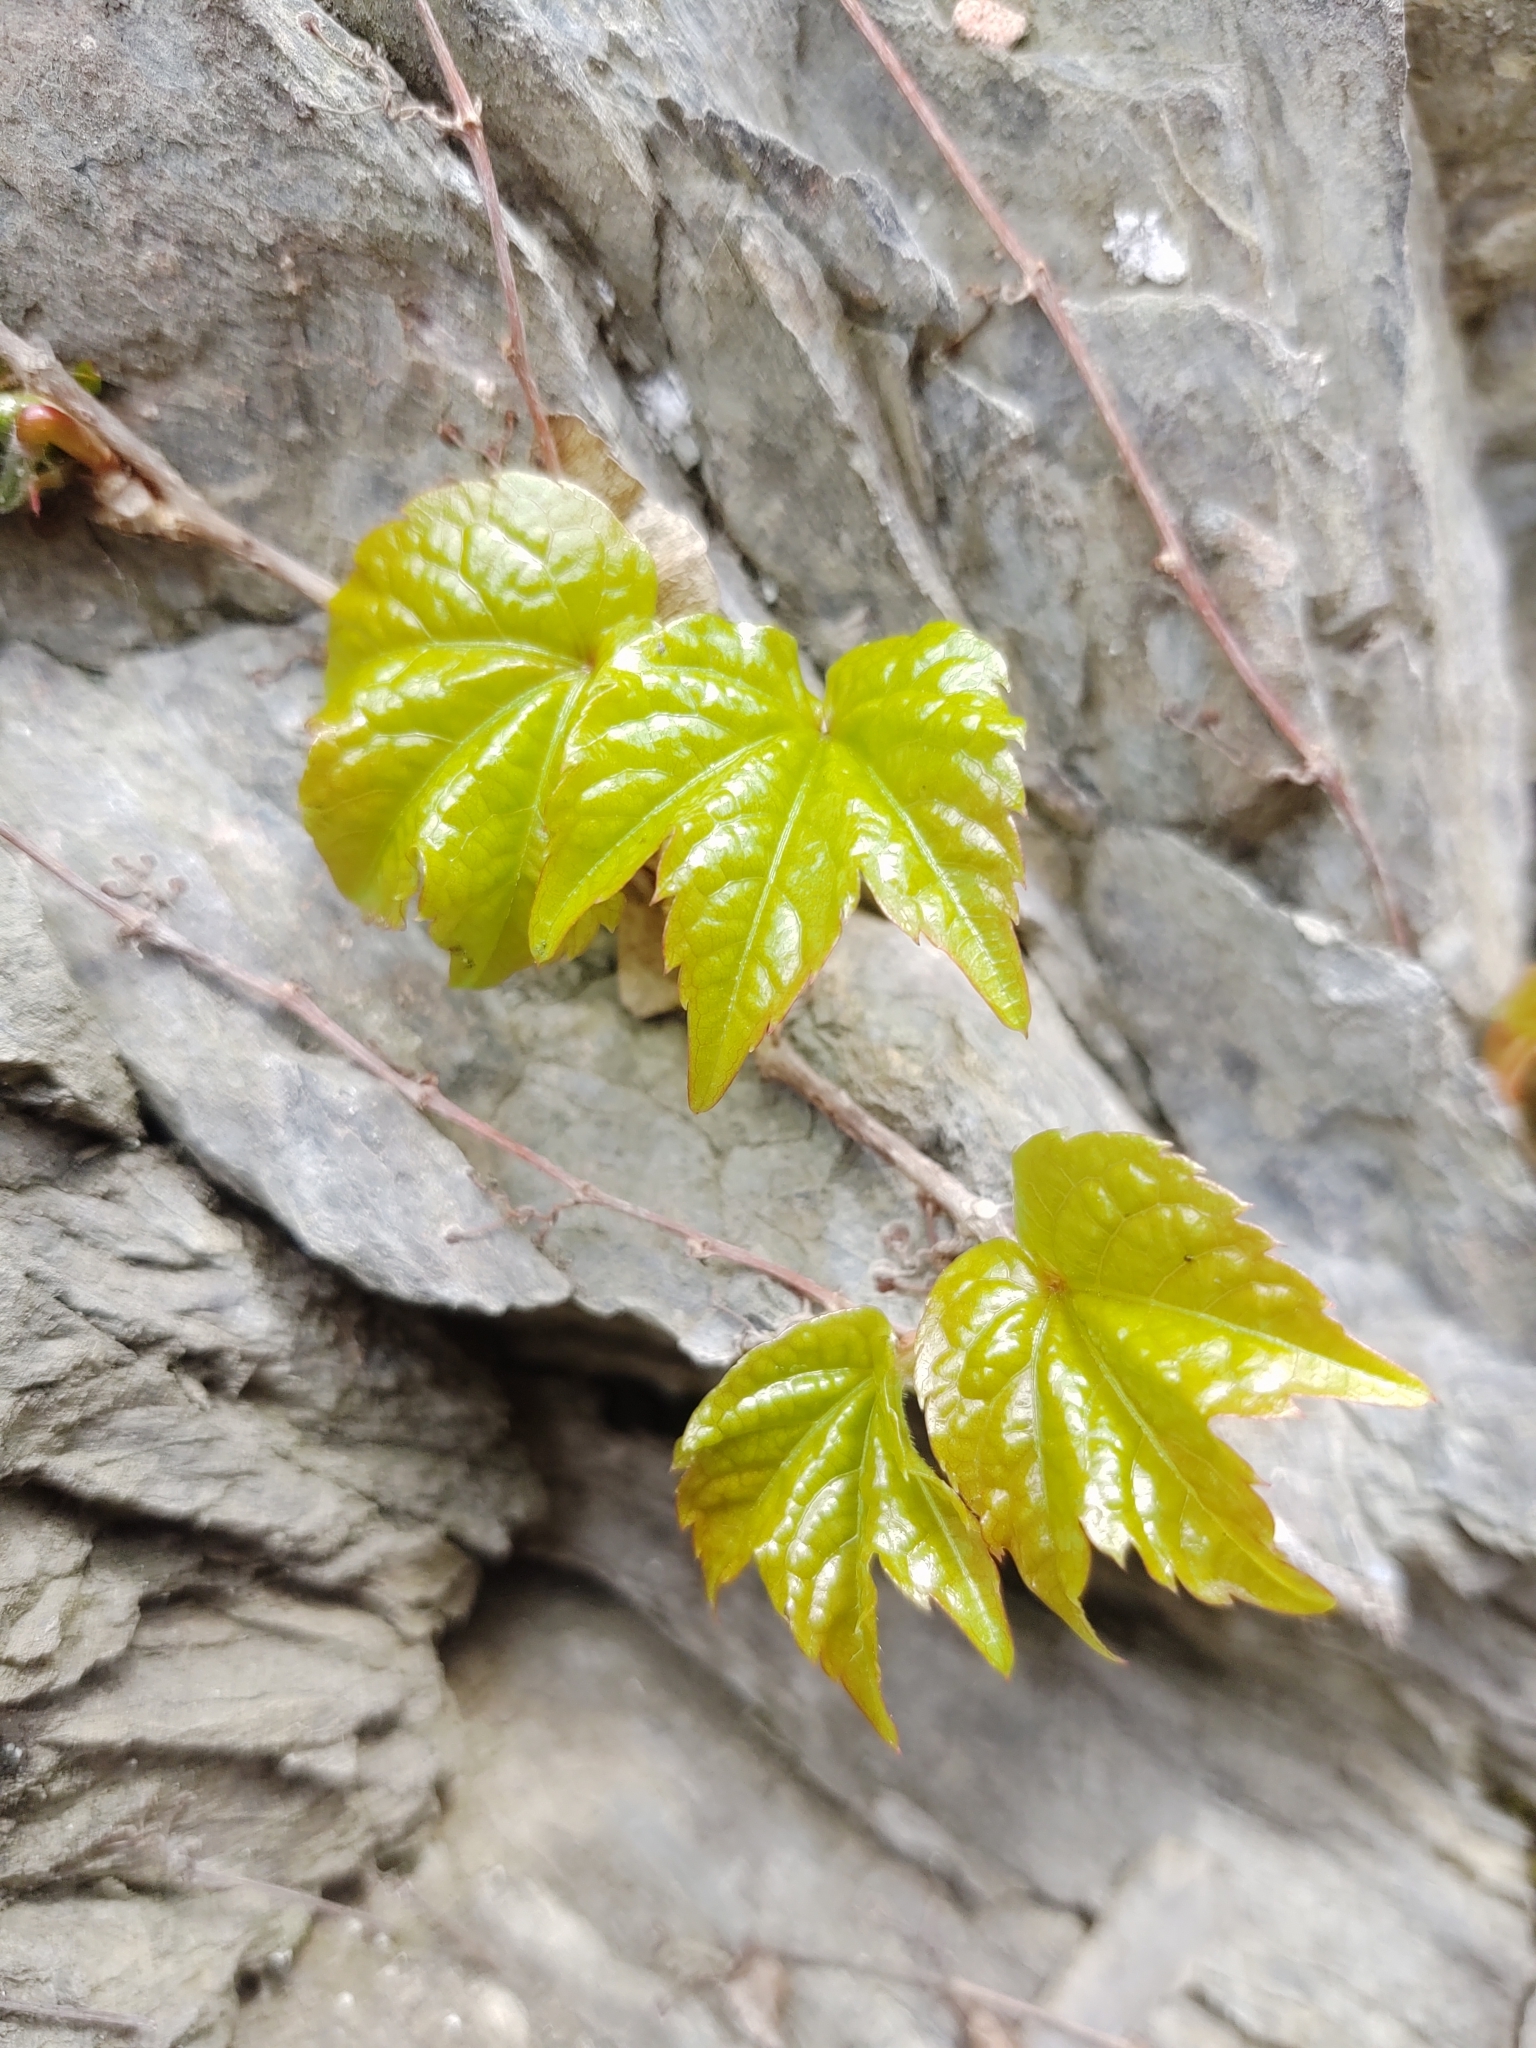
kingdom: Plantae
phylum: Tracheophyta
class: Magnoliopsida
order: Vitales
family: Vitaceae
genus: Parthenocissus
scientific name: Parthenocissus tricuspidata
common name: Boston ivy
